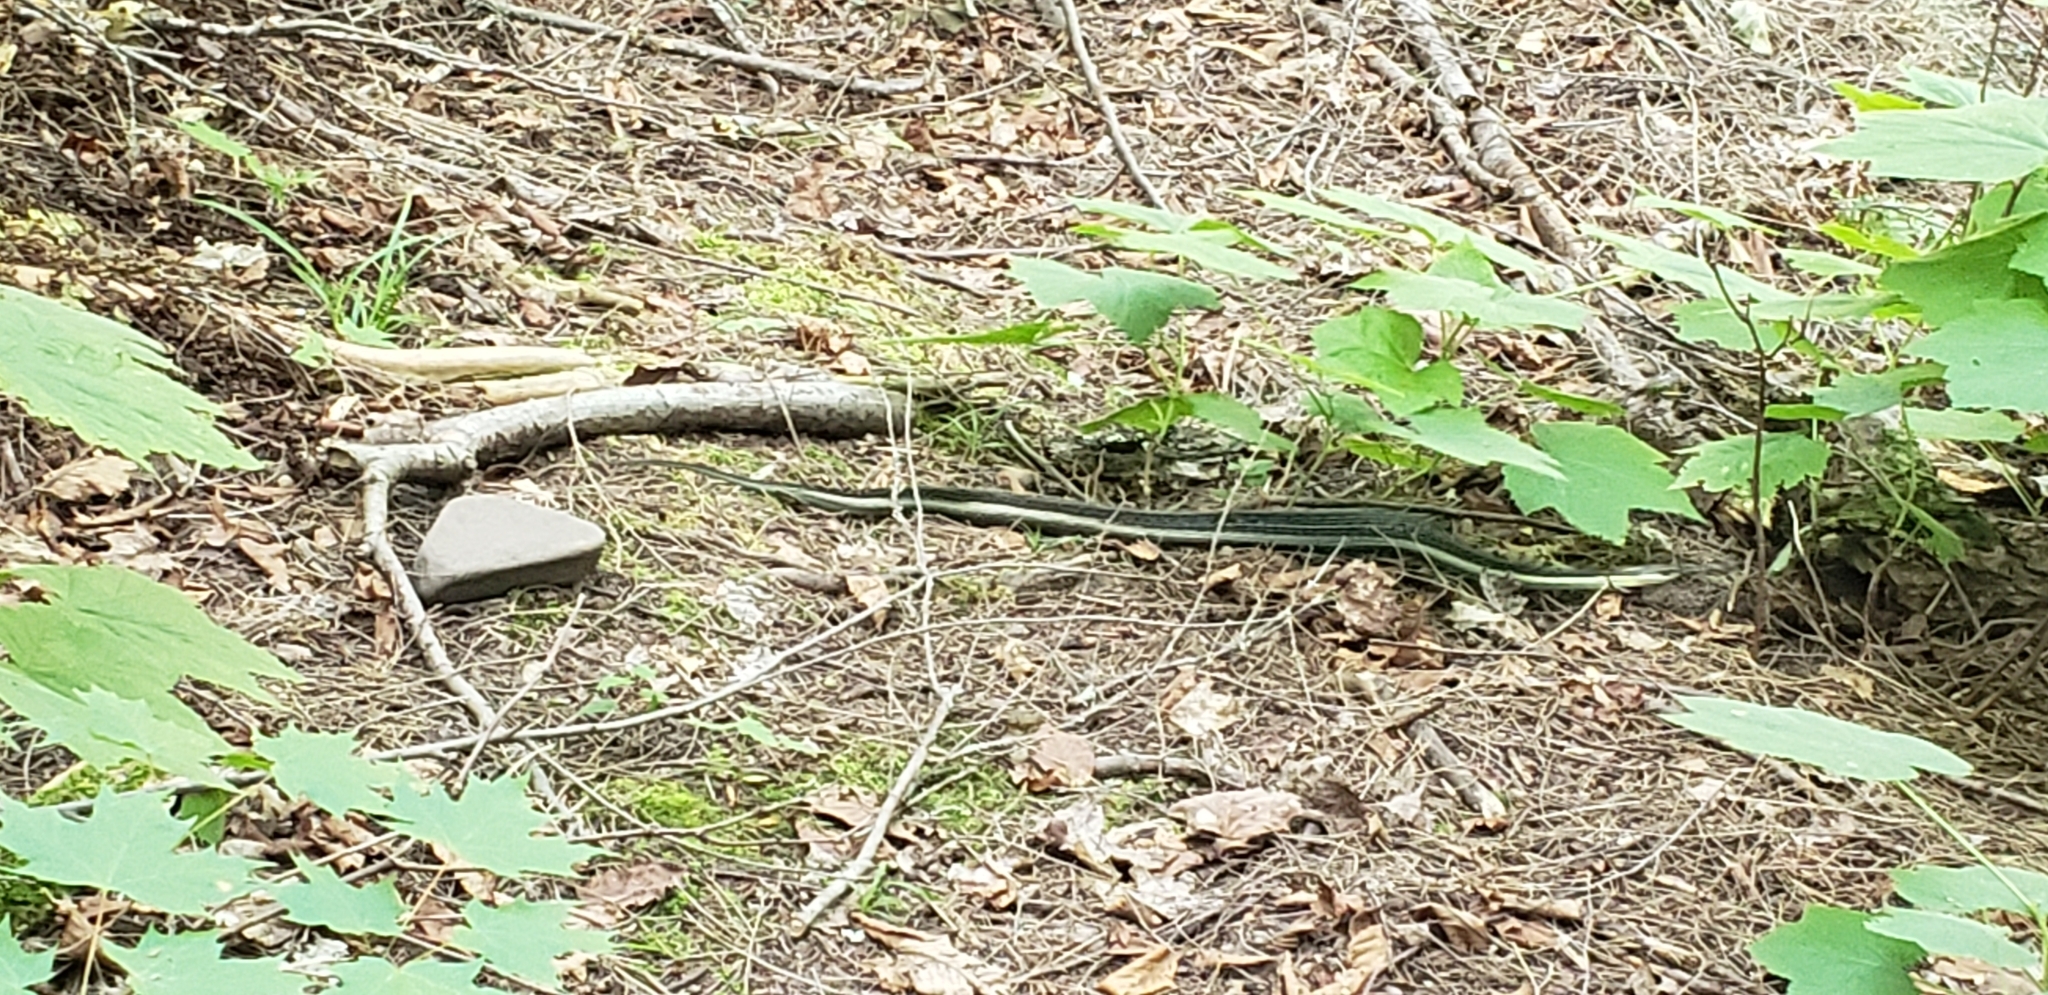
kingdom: Animalia
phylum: Chordata
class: Squamata
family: Colubridae
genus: Thamnophis
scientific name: Thamnophis sirtalis
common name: Common garter snake
